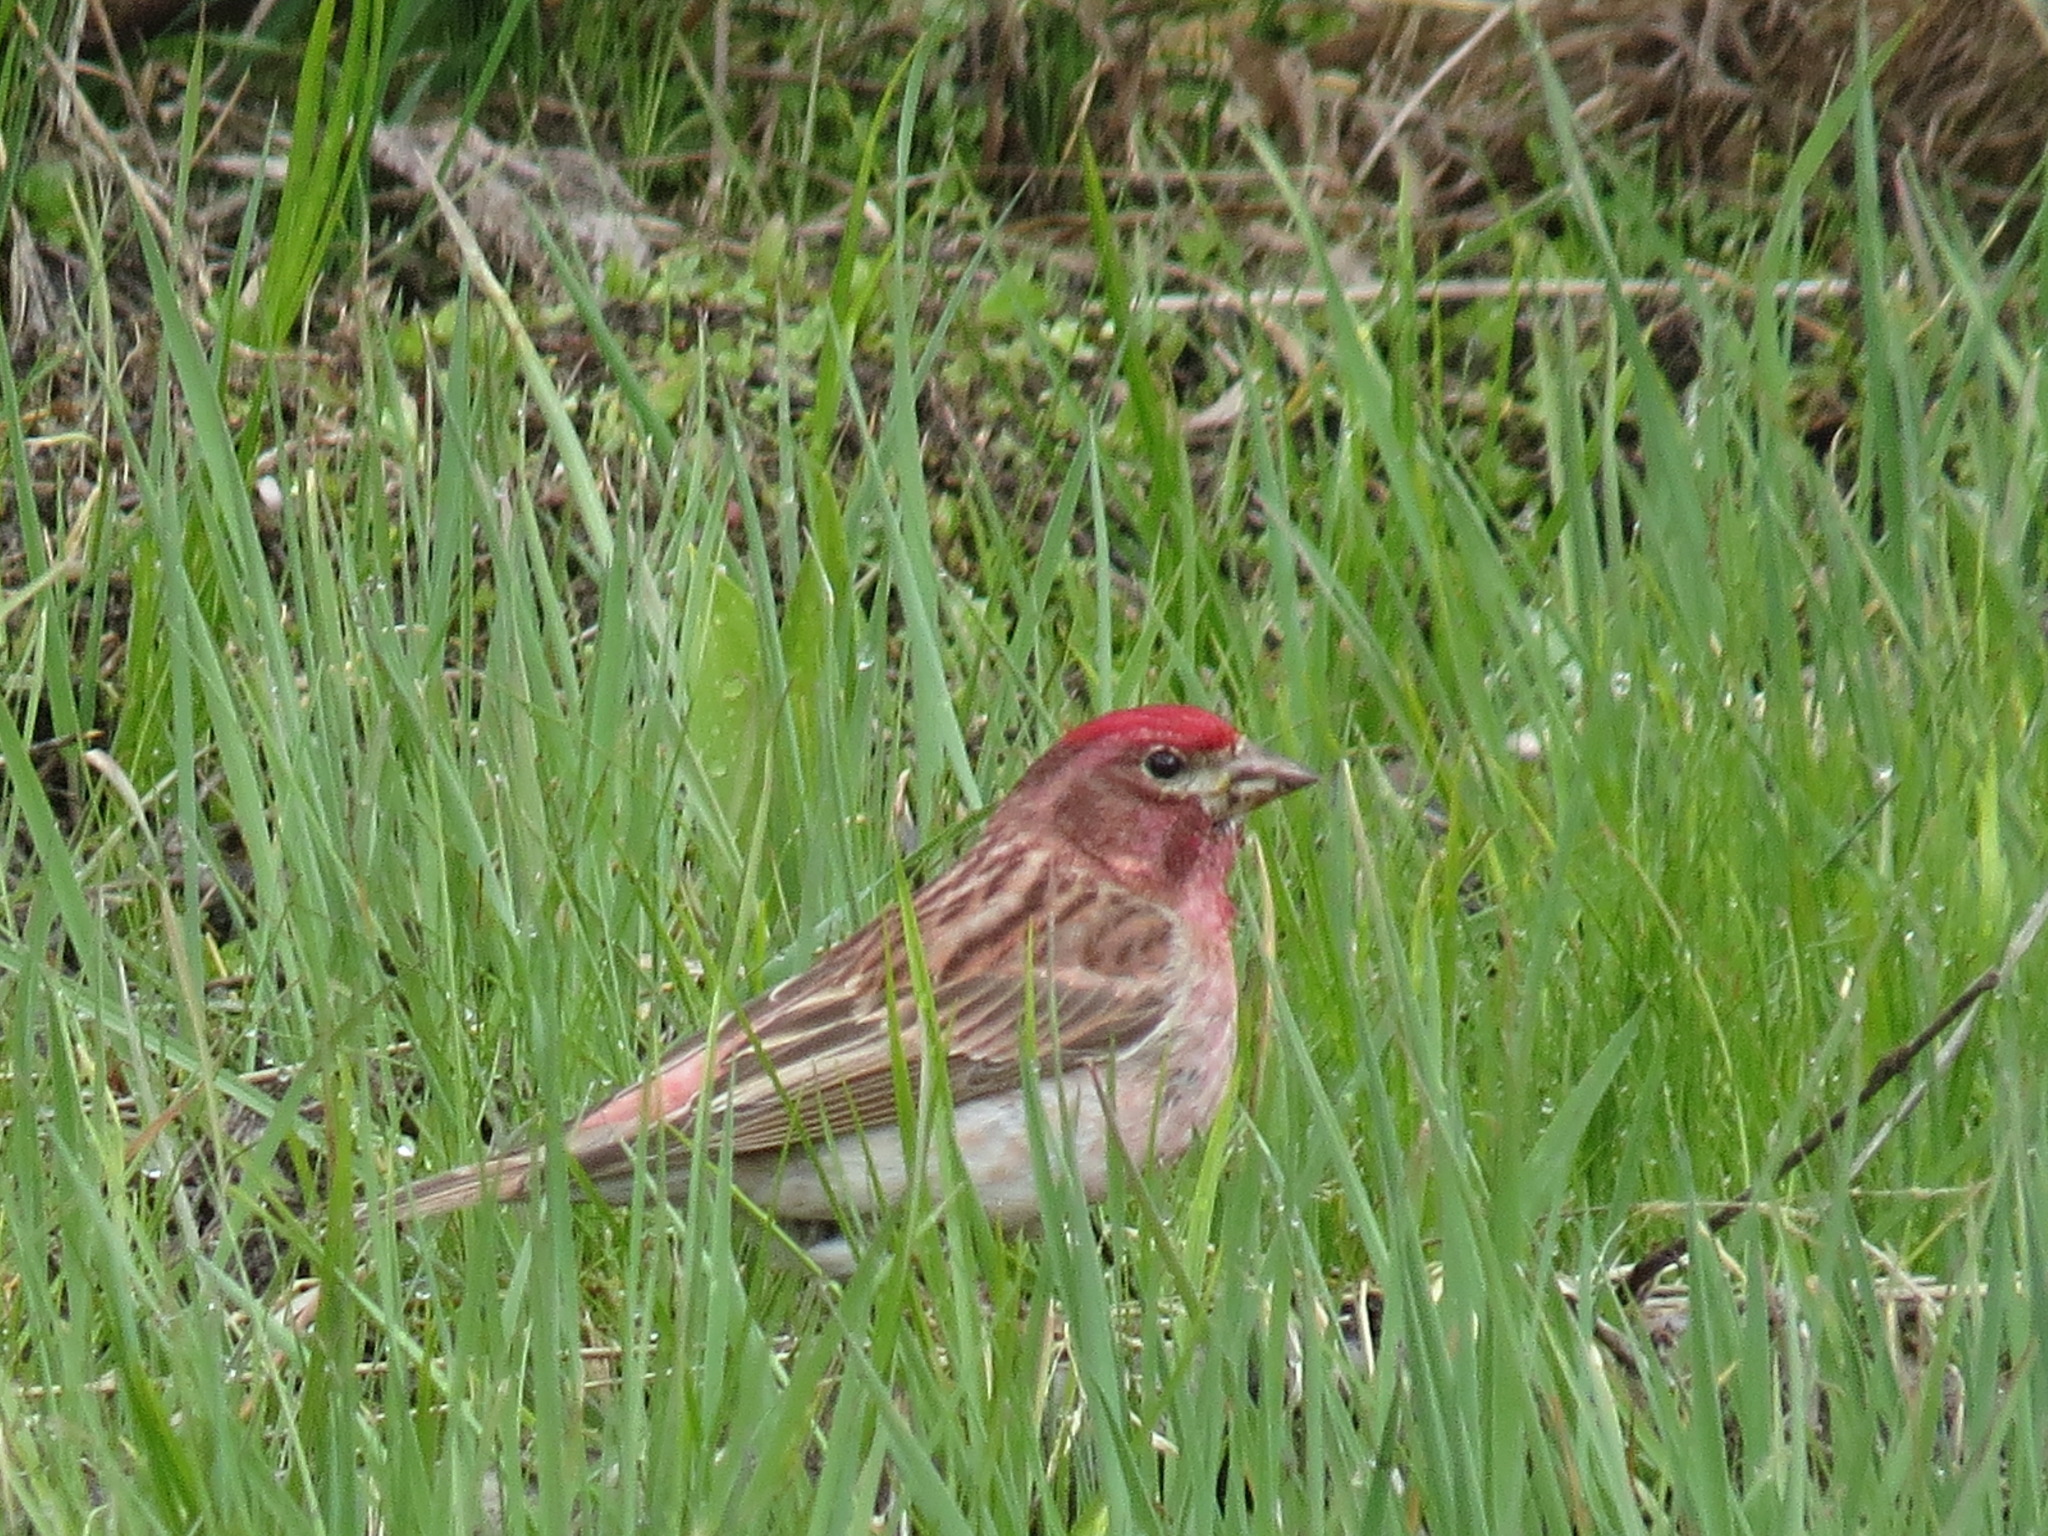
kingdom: Animalia
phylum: Chordata
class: Aves
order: Passeriformes
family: Fringillidae
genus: Haemorhous
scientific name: Haemorhous cassinii
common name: Cassin's finch
